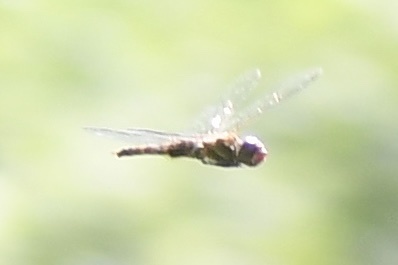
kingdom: Animalia
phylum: Arthropoda
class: Insecta
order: Odonata
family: Libellulidae
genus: Pantala
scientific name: Pantala hymenaea
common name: Spot-winged glider
